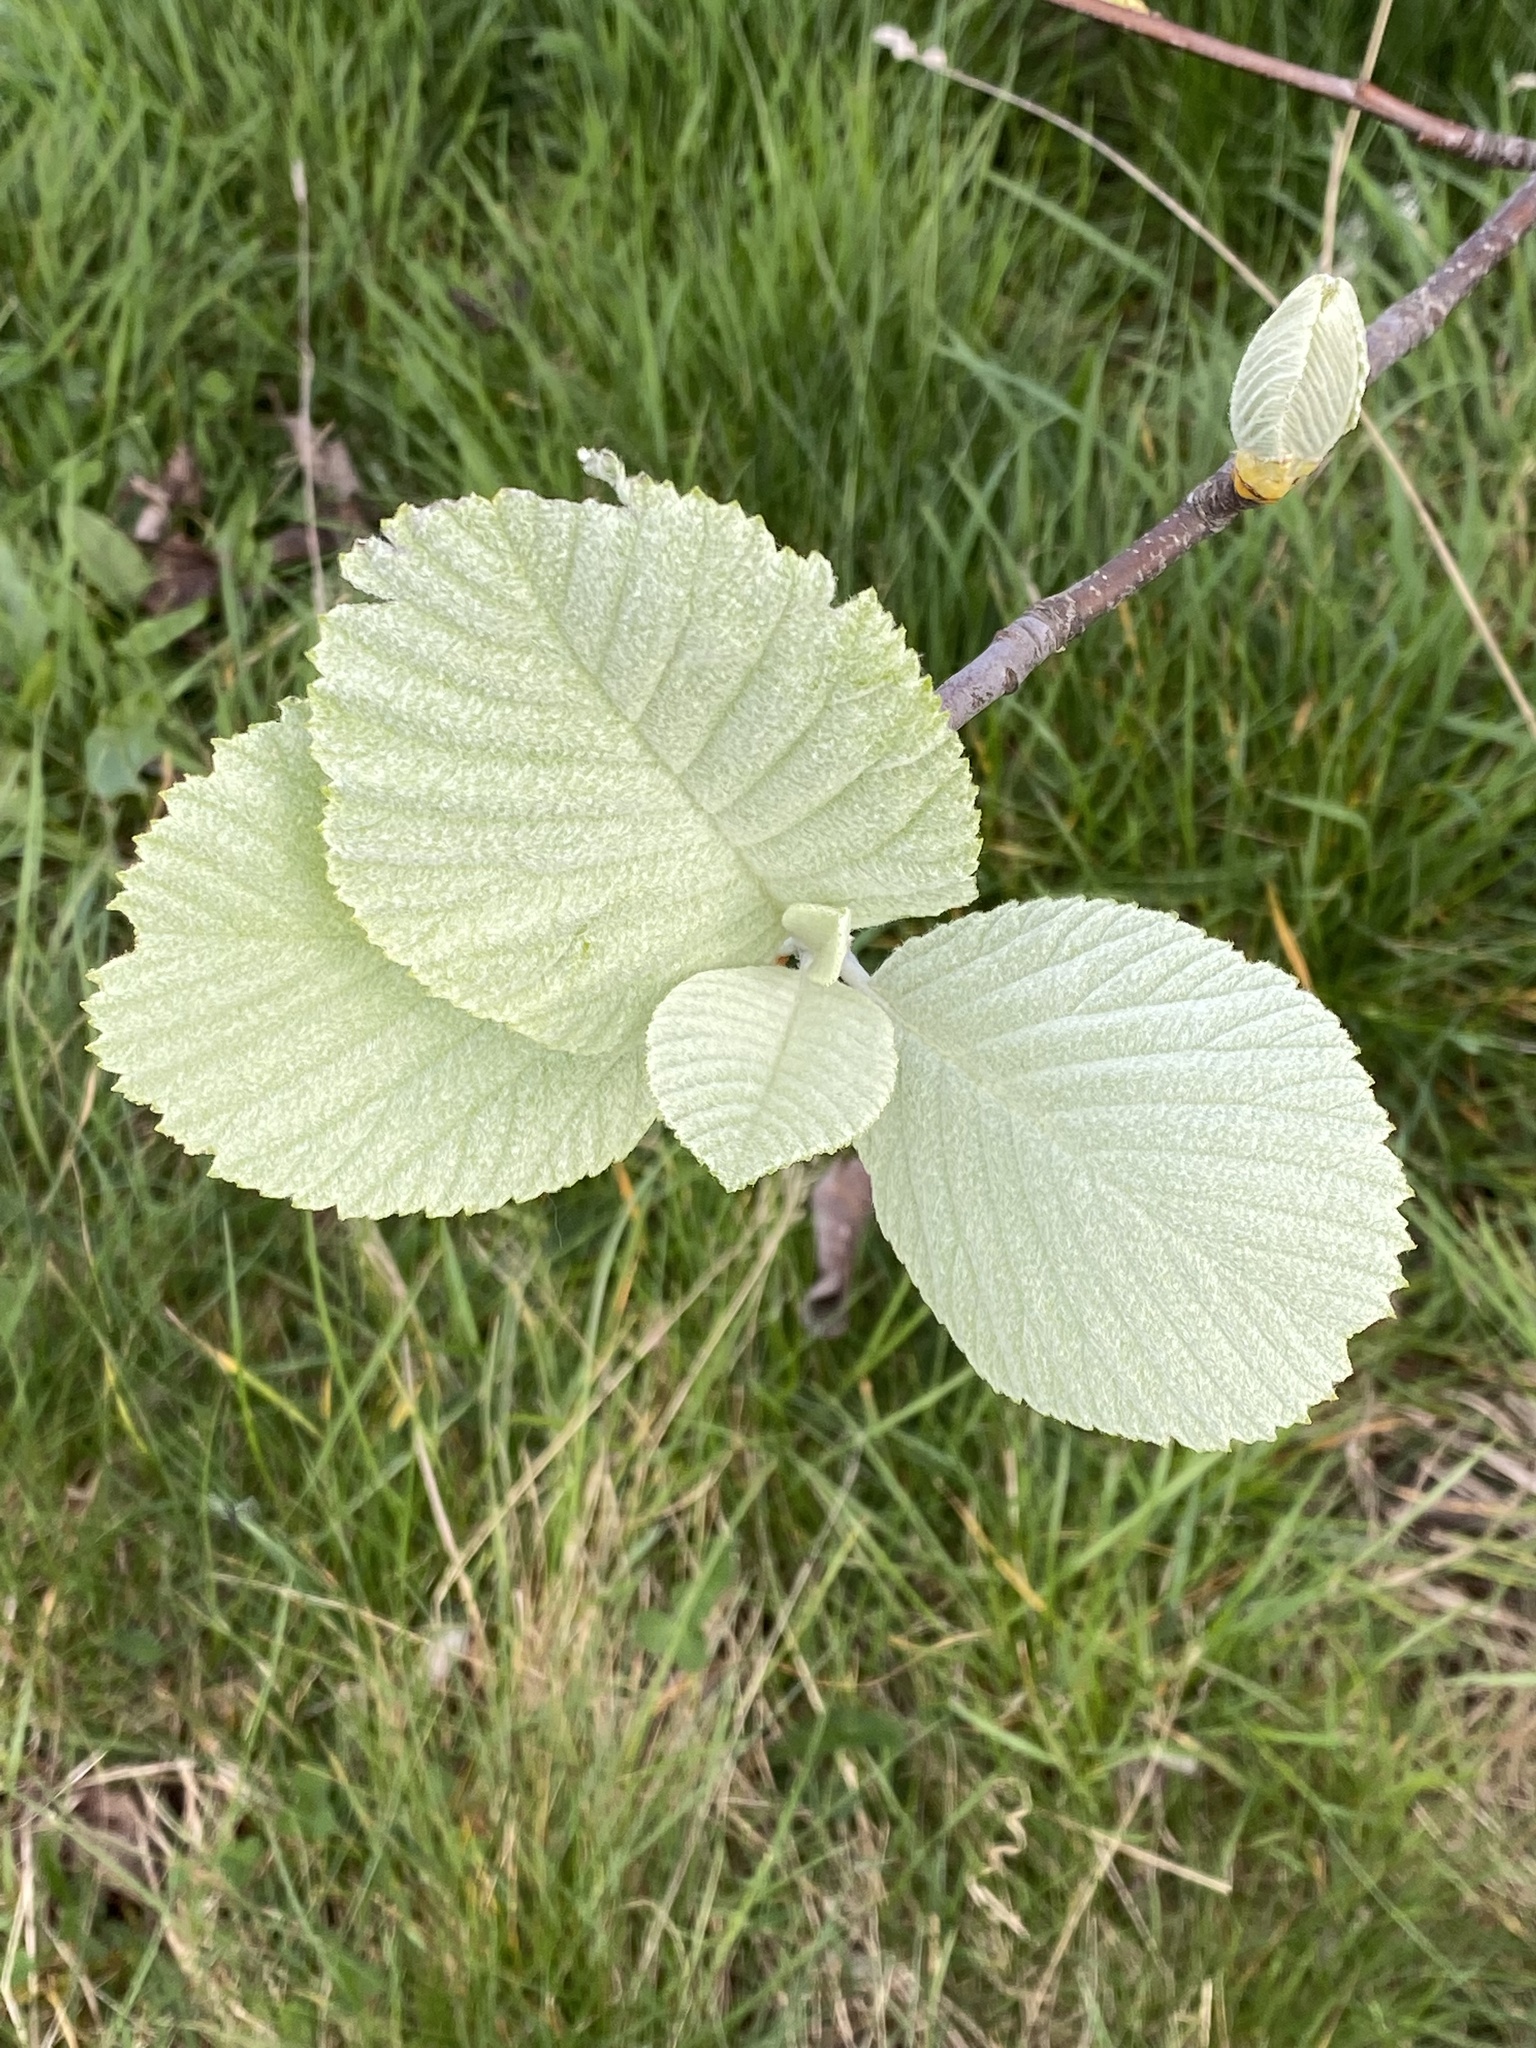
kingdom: Plantae
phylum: Tracheophyta
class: Magnoliopsida
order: Rosales
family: Rosaceae
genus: Aria
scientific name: Aria edulis
